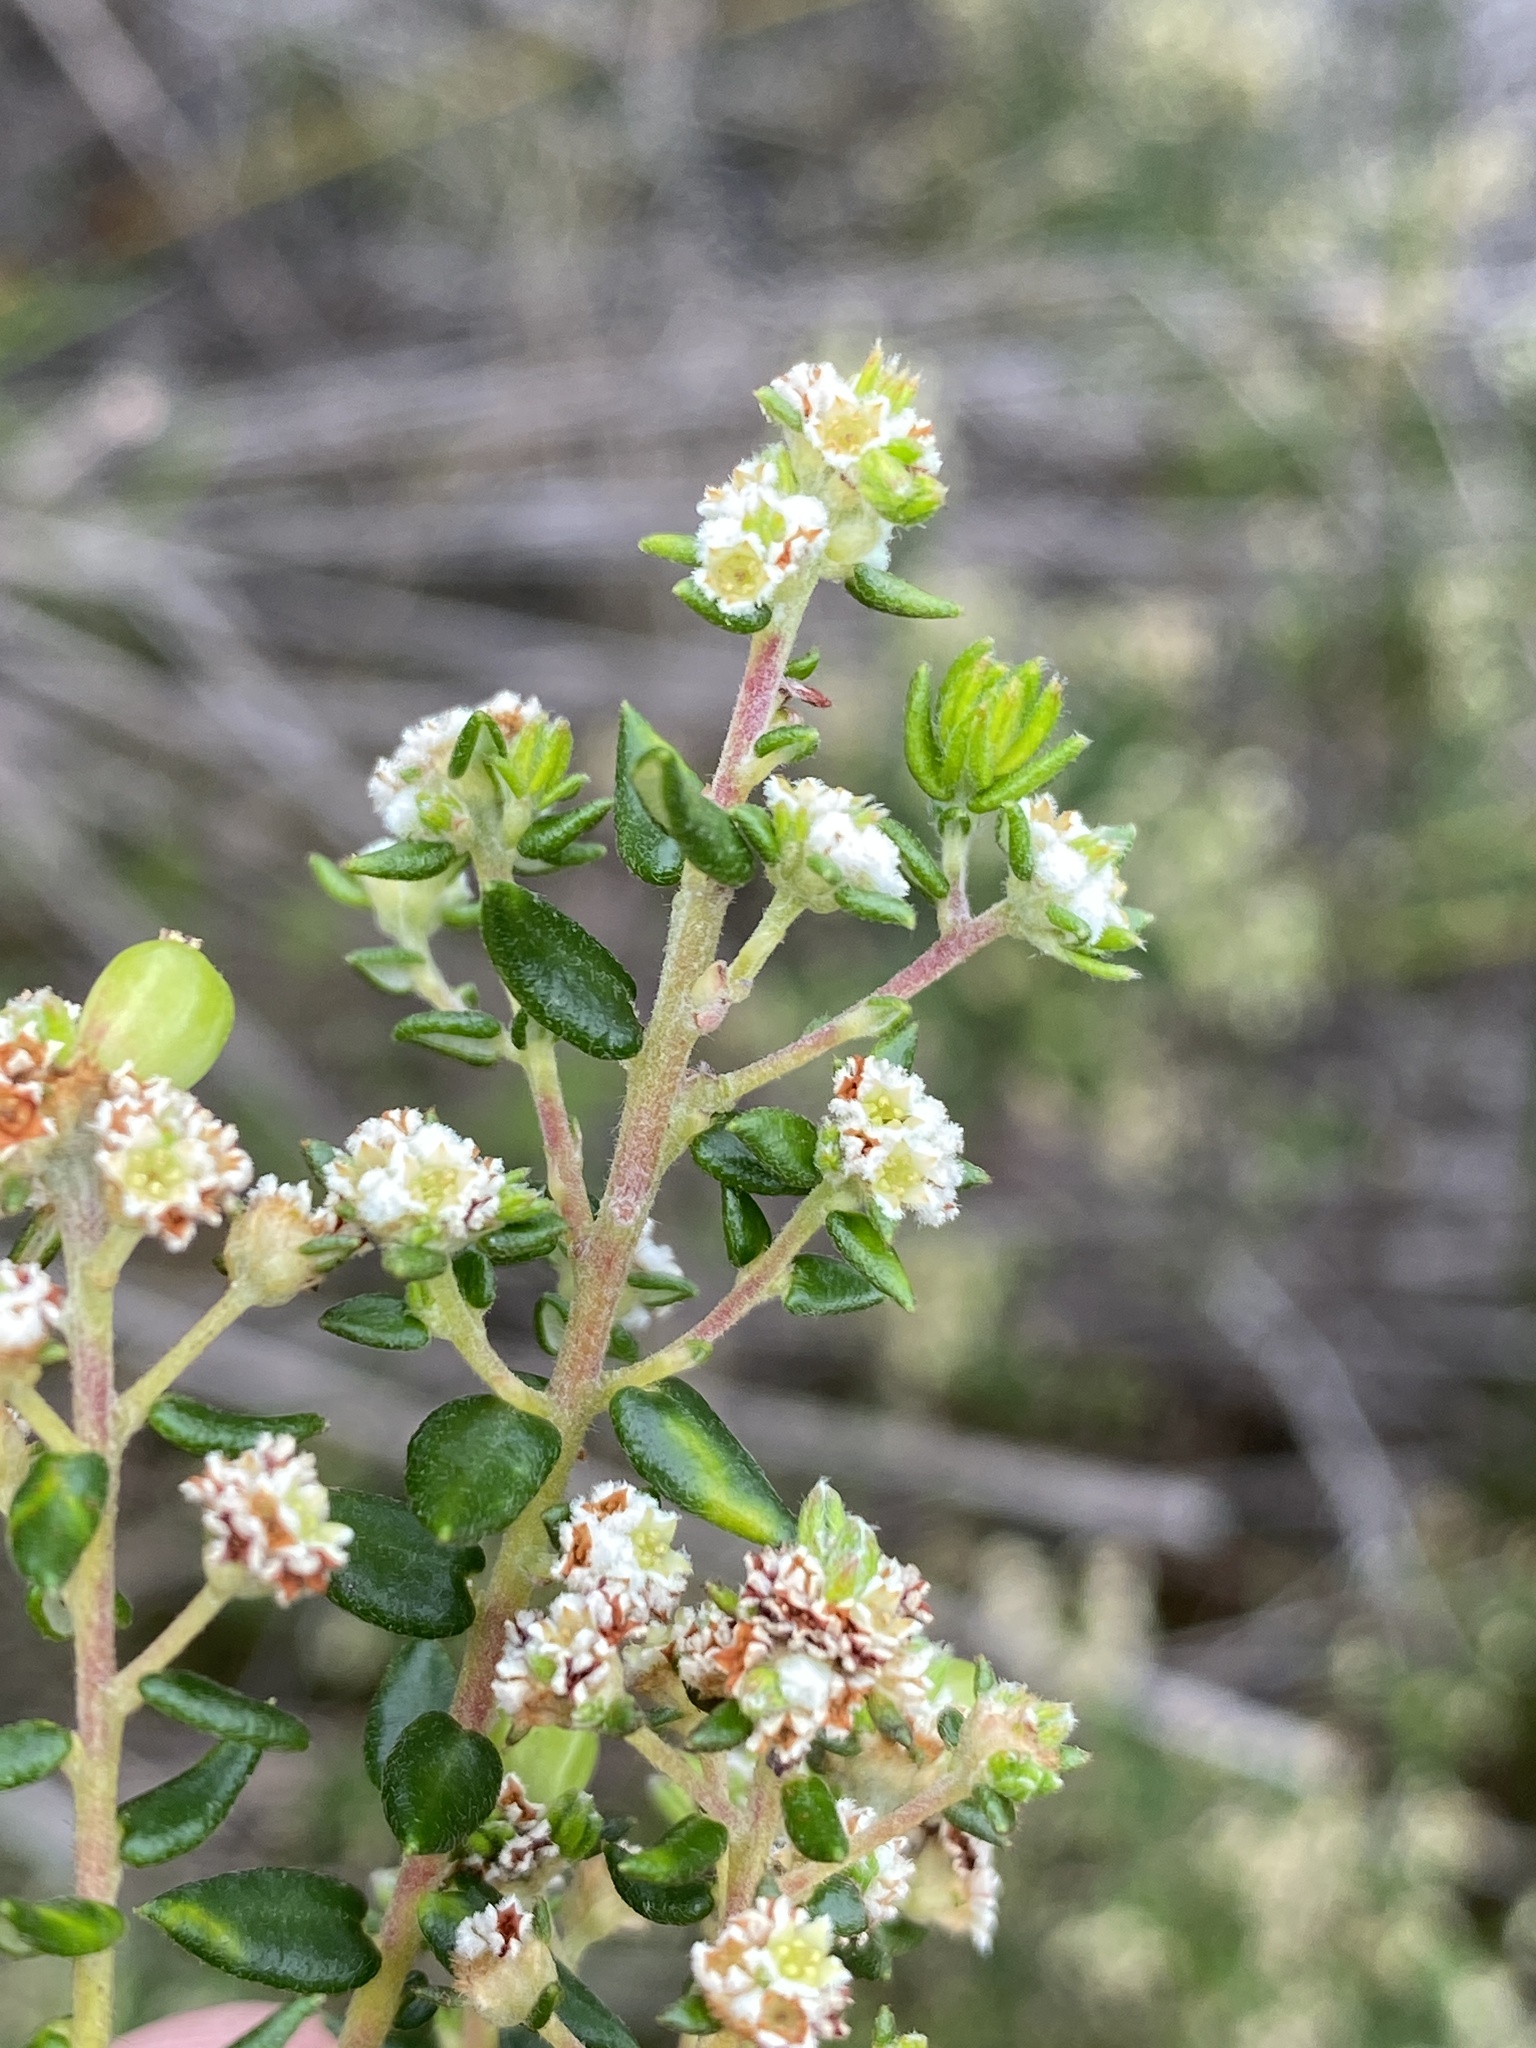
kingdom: Plantae
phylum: Tracheophyta
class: Magnoliopsida
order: Rosales
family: Rhamnaceae
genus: Phylica
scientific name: Phylica parviflora
